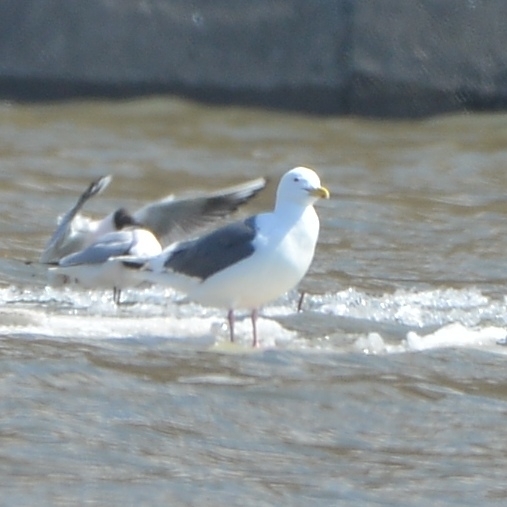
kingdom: Animalia
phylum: Chordata
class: Aves
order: Charadriiformes
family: Laridae
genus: Larus
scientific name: Larus schistisagus
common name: Slaty-backed gull
